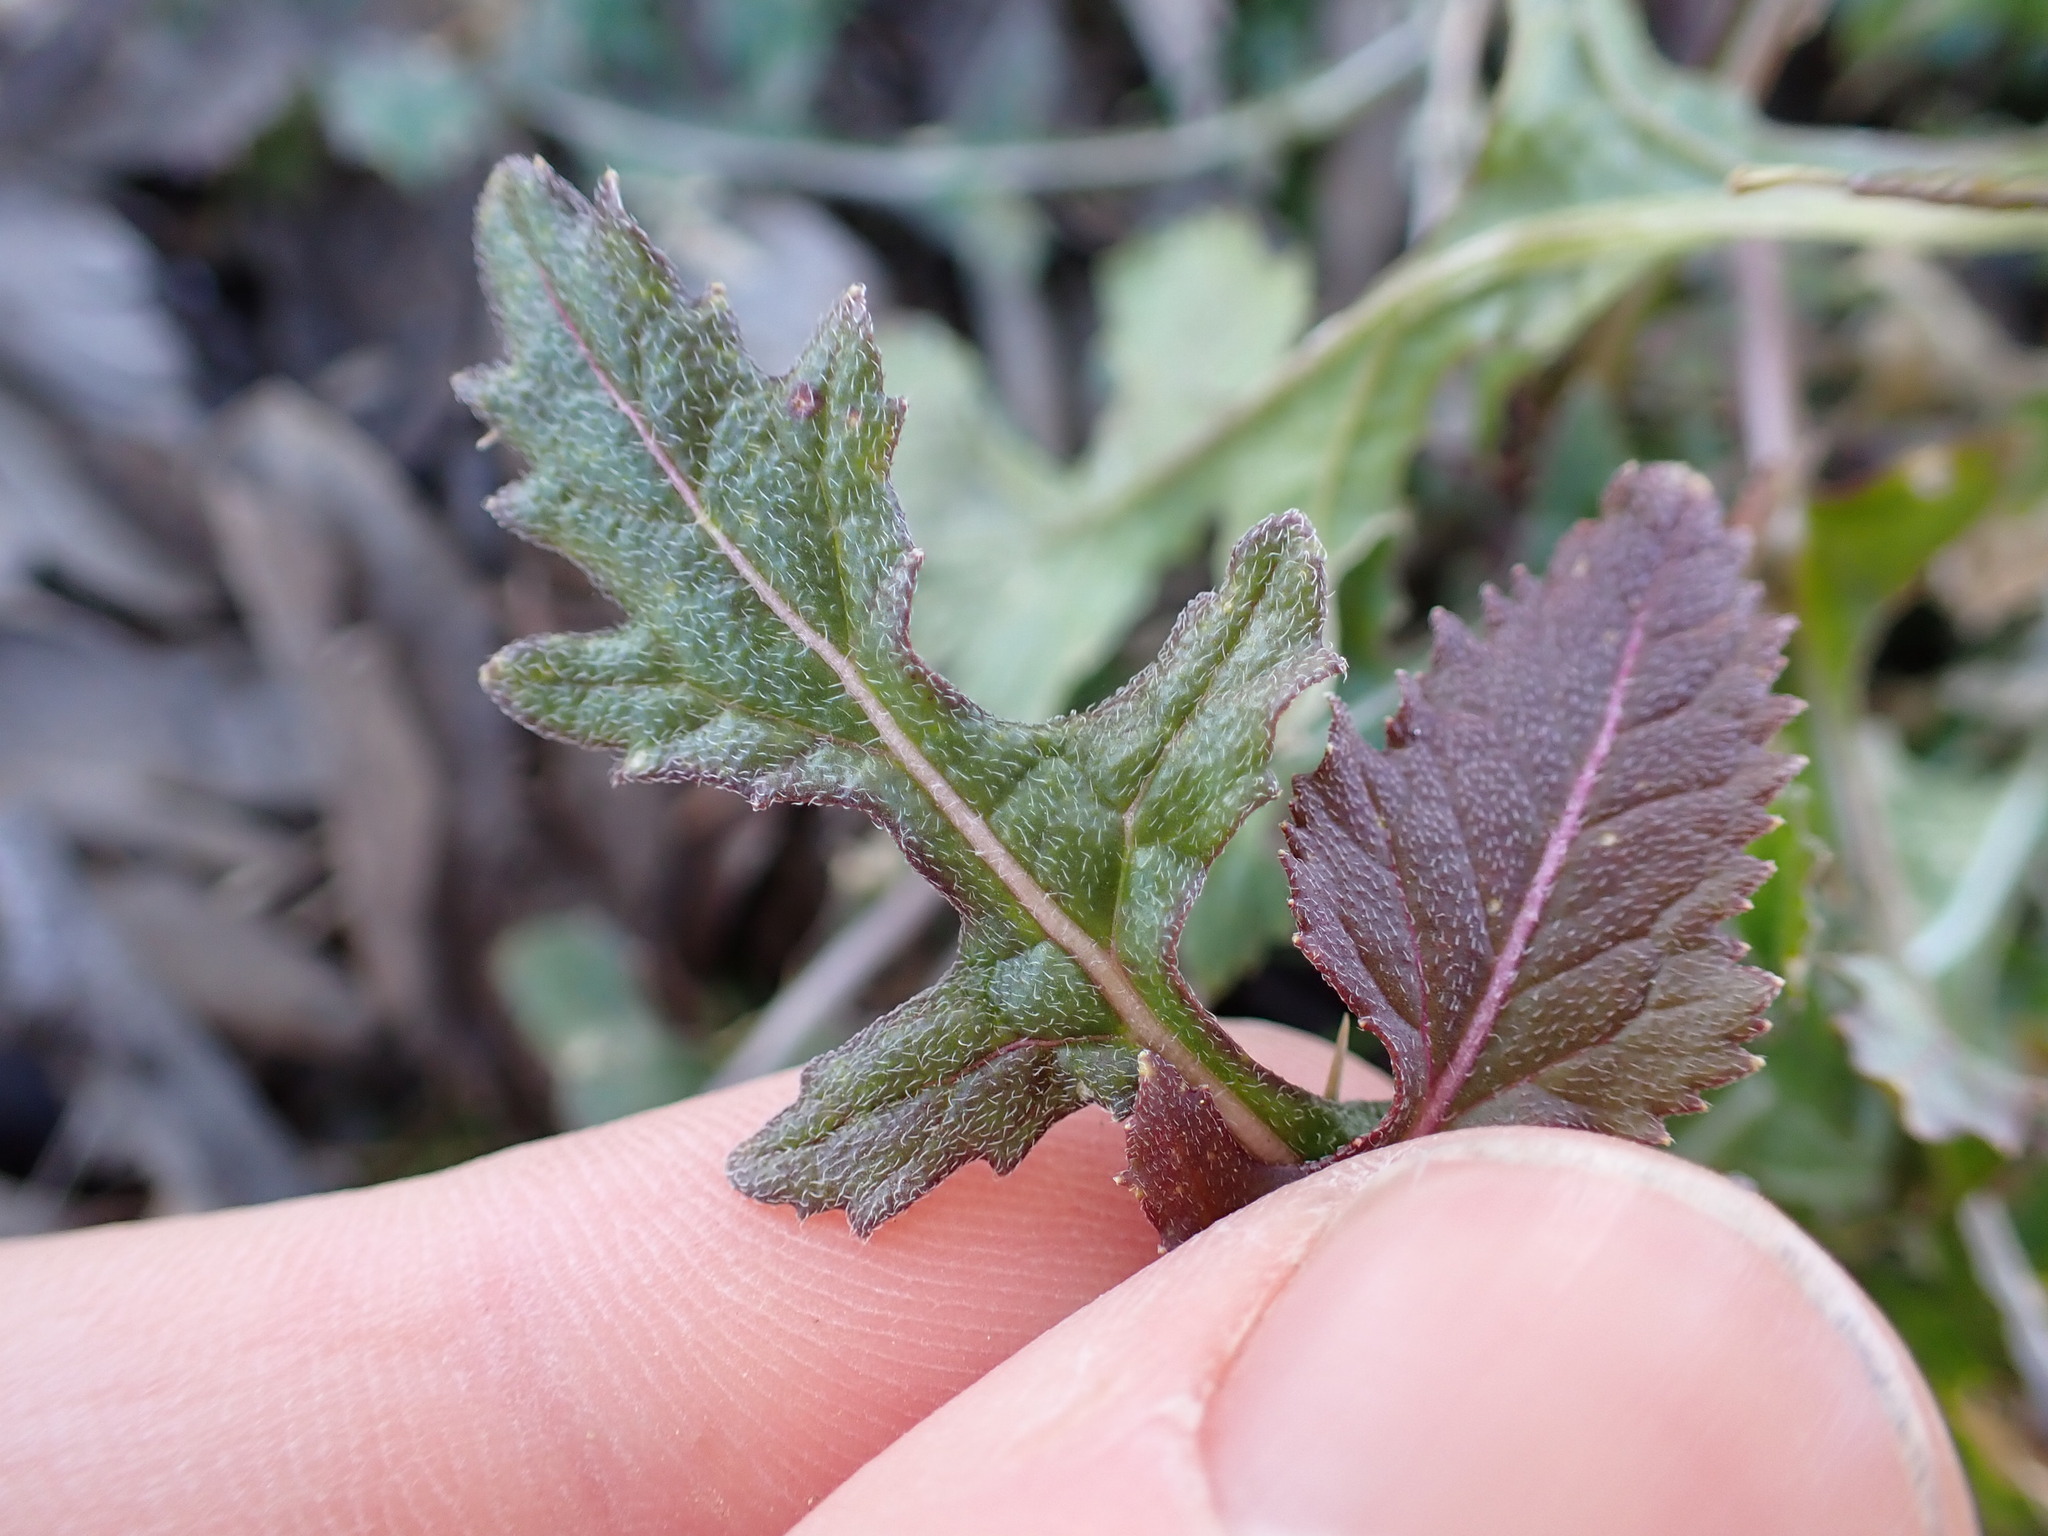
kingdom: Plantae
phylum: Tracheophyta
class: Magnoliopsida
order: Brassicales
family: Brassicaceae
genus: Diplotaxis
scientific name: Diplotaxis erucoides
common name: White rocket
